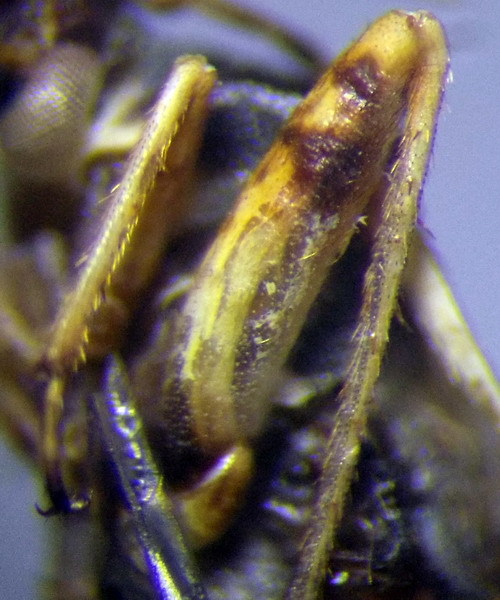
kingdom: Animalia
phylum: Arthropoda
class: Insecta
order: Hemiptera
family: Miridae
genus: Polymerus
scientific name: Polymerus brevicornis
